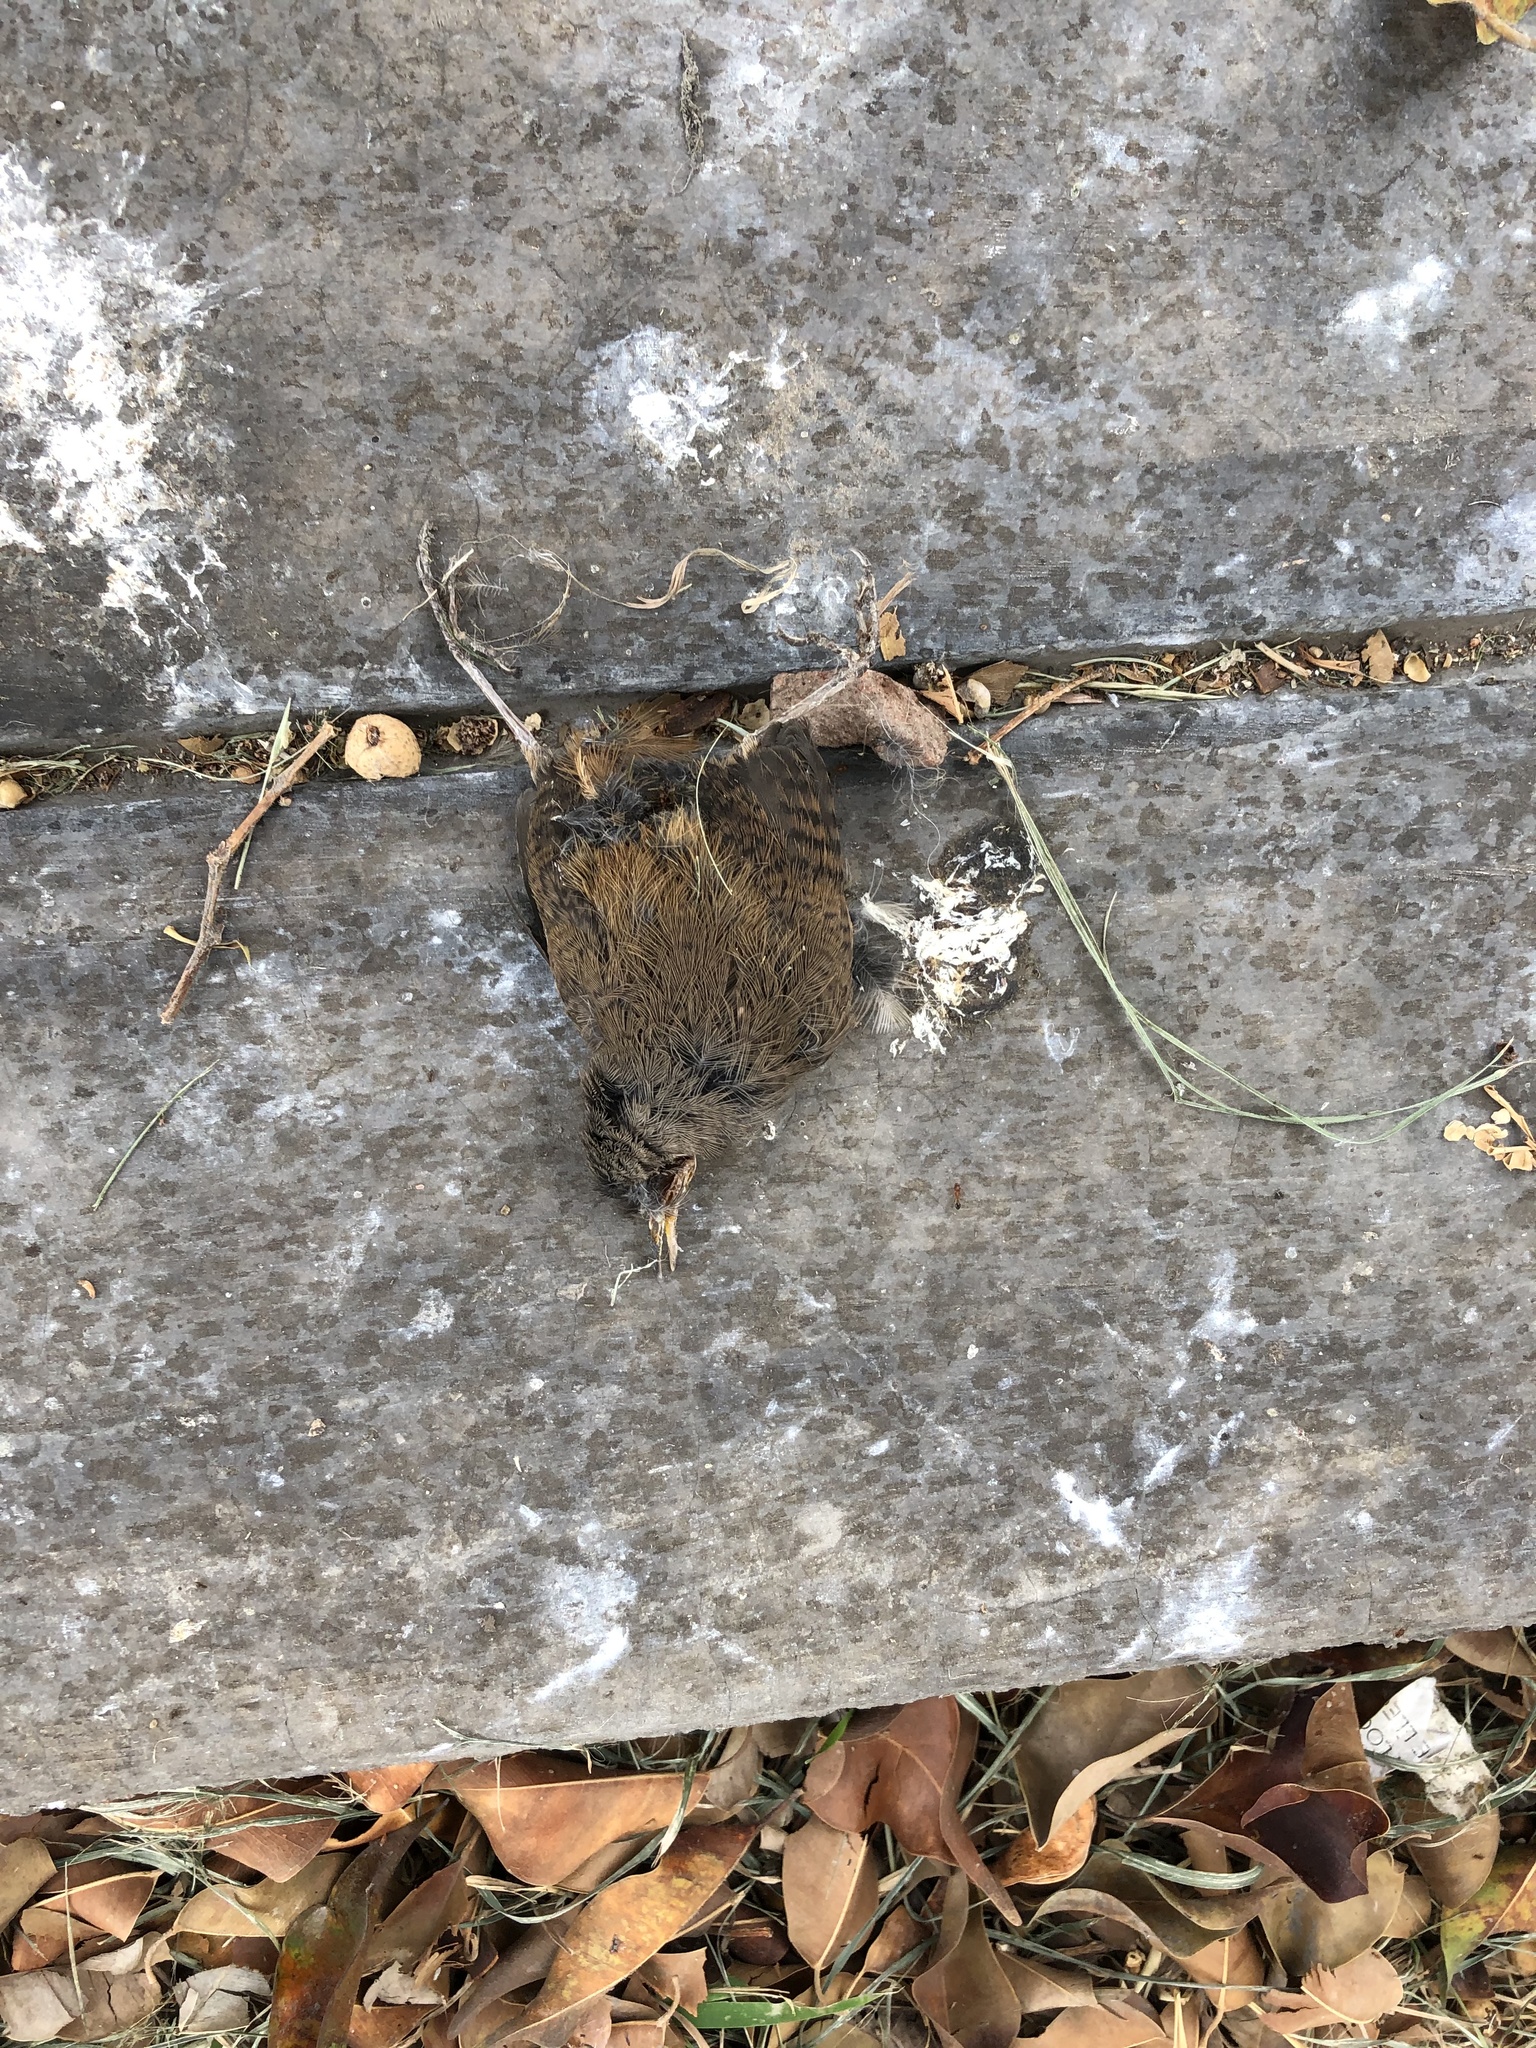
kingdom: Animalia
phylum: Chordata
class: Aves
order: Passeriformes
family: Troglodytidae
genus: Troglodytes
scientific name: Troglodytes aedon
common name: House wren
